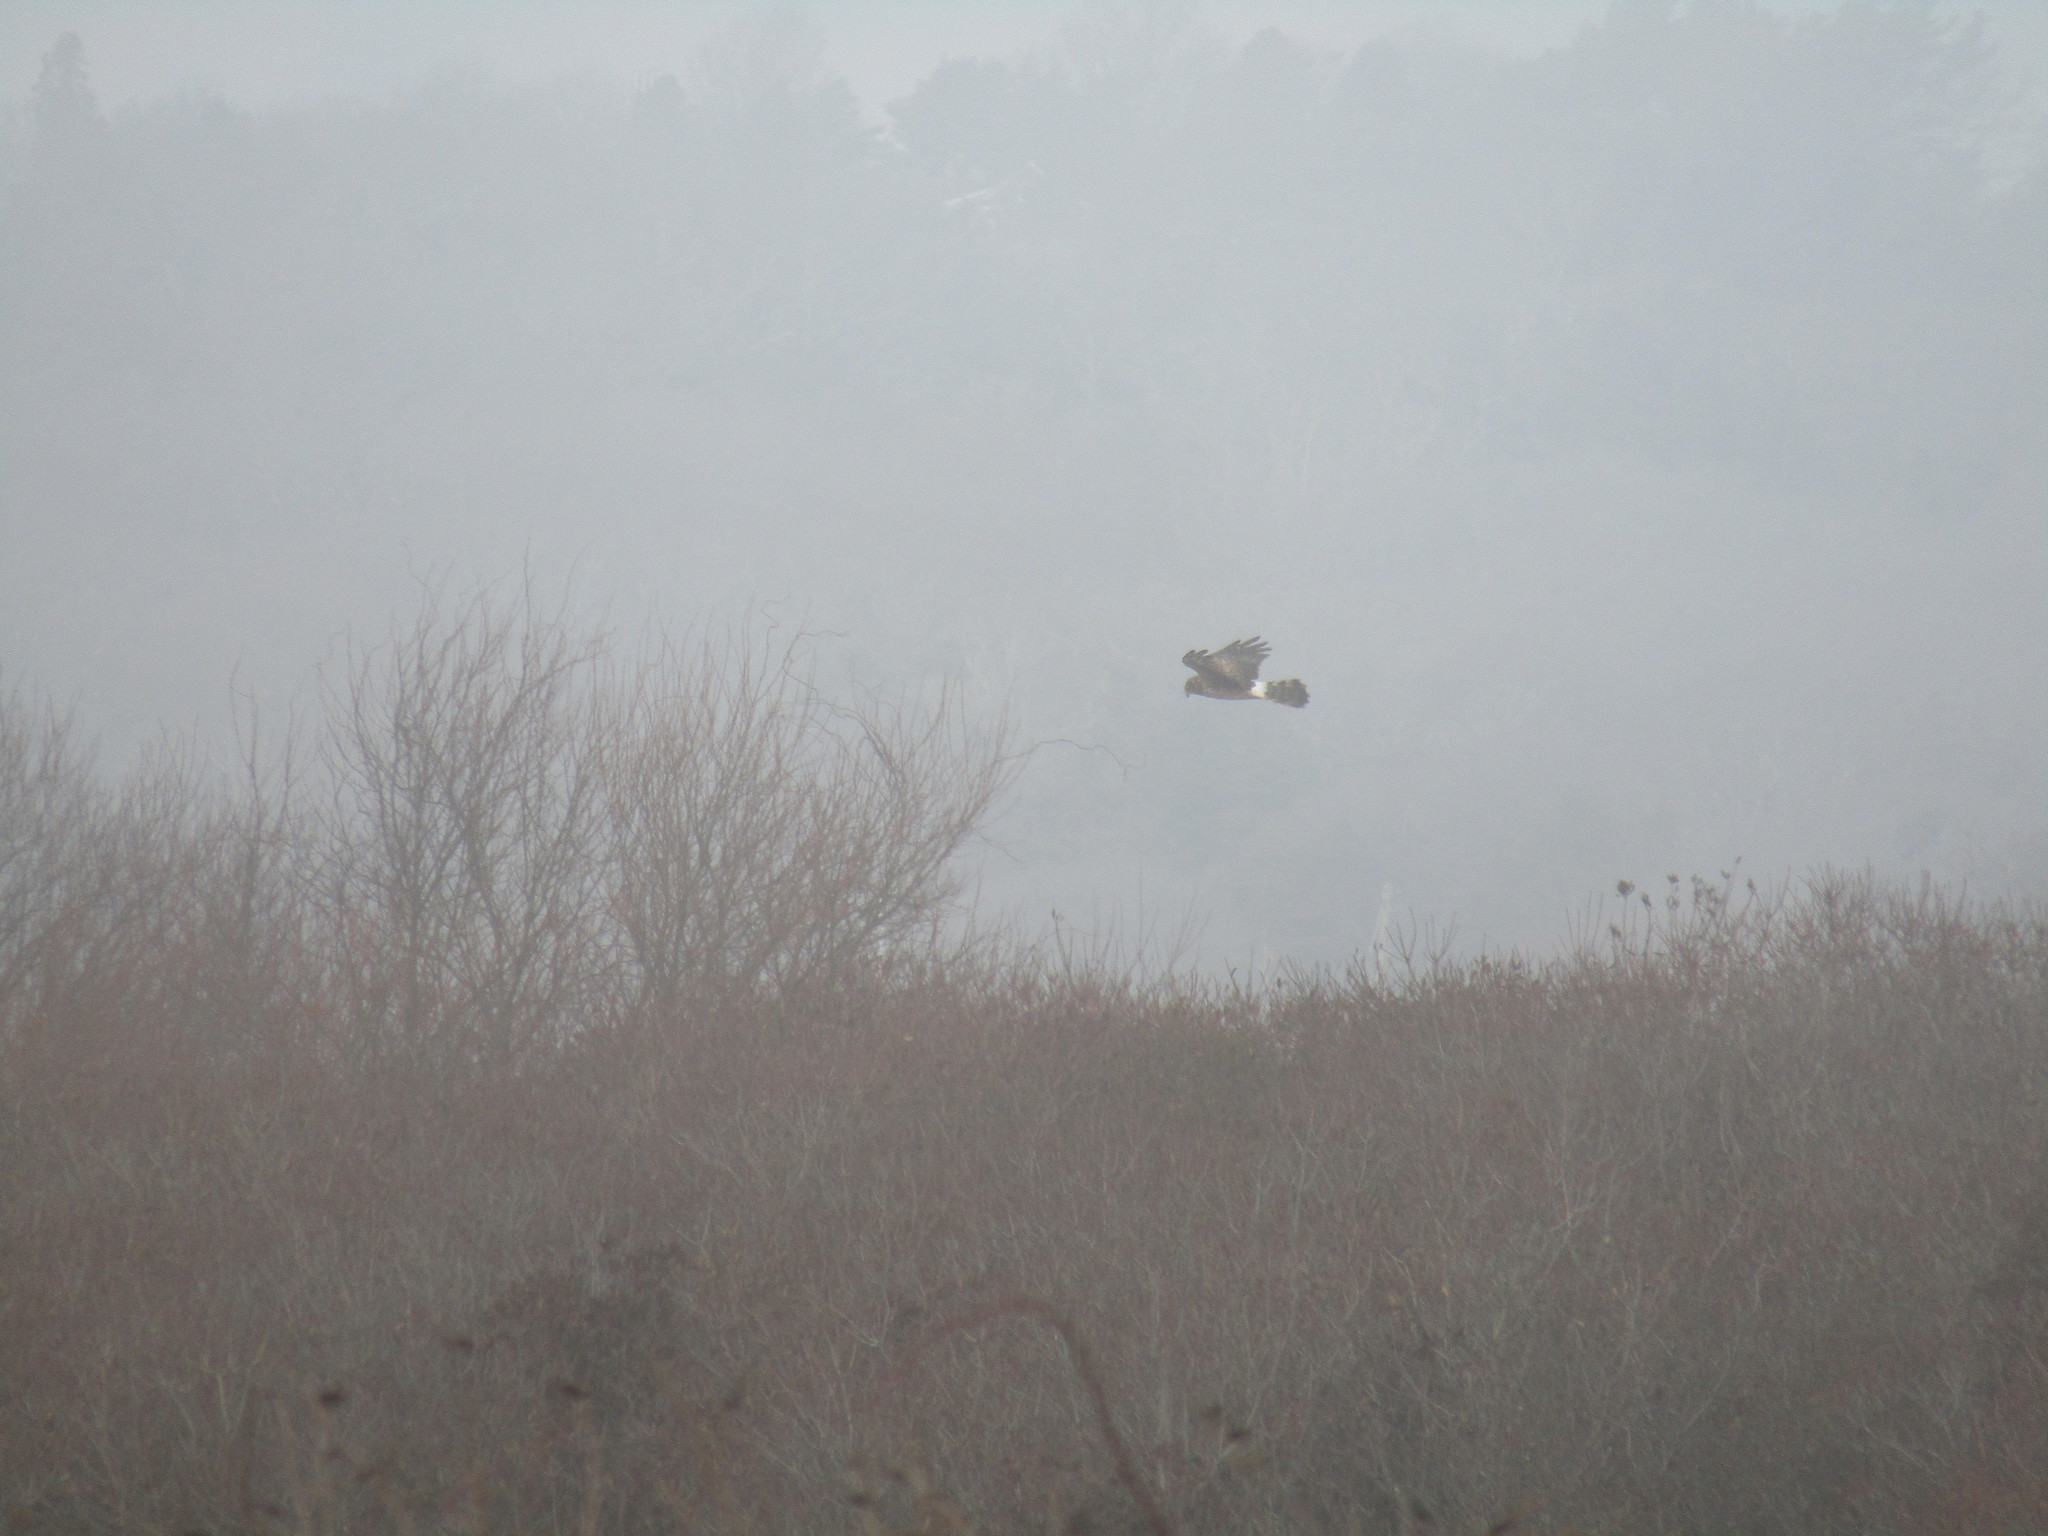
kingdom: Animalia
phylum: Chordata
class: Aves
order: Accipitriformes
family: Accipitridae
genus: Circus
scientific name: Circus cyaneus
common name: Hen harrier
